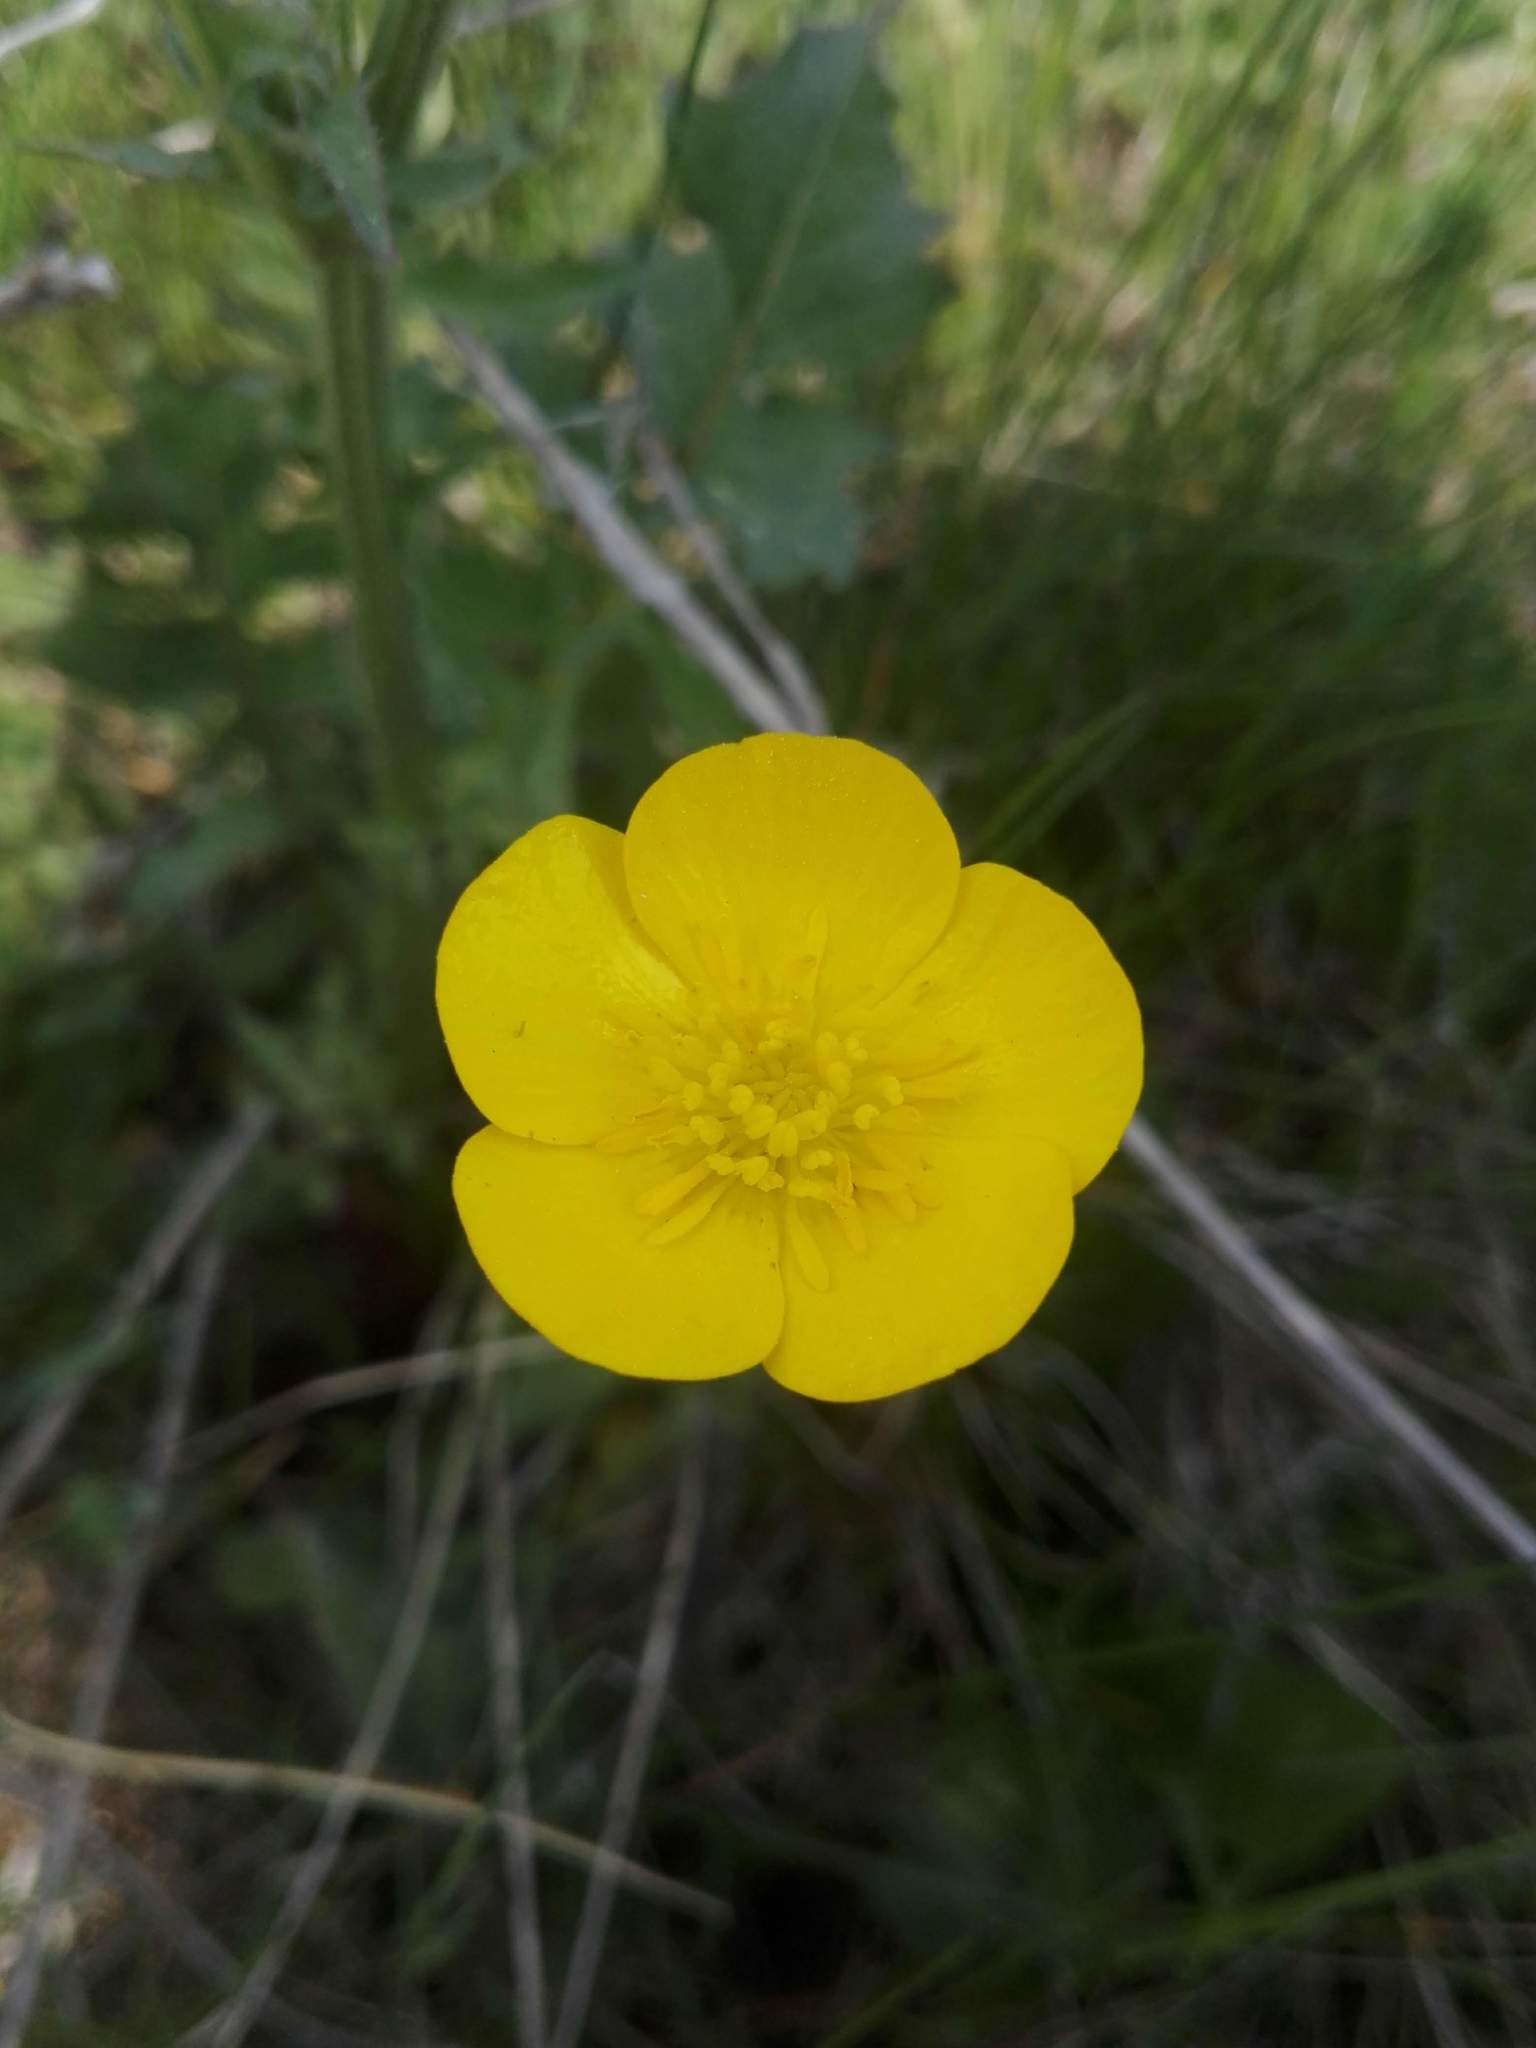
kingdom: Plantae
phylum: Tracheophyta
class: Magnoliopsida
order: Ranunculales
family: Ranunculaceae
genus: Ranunculus
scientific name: Ranunculus bulbosus
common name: Bulbous buttercup
